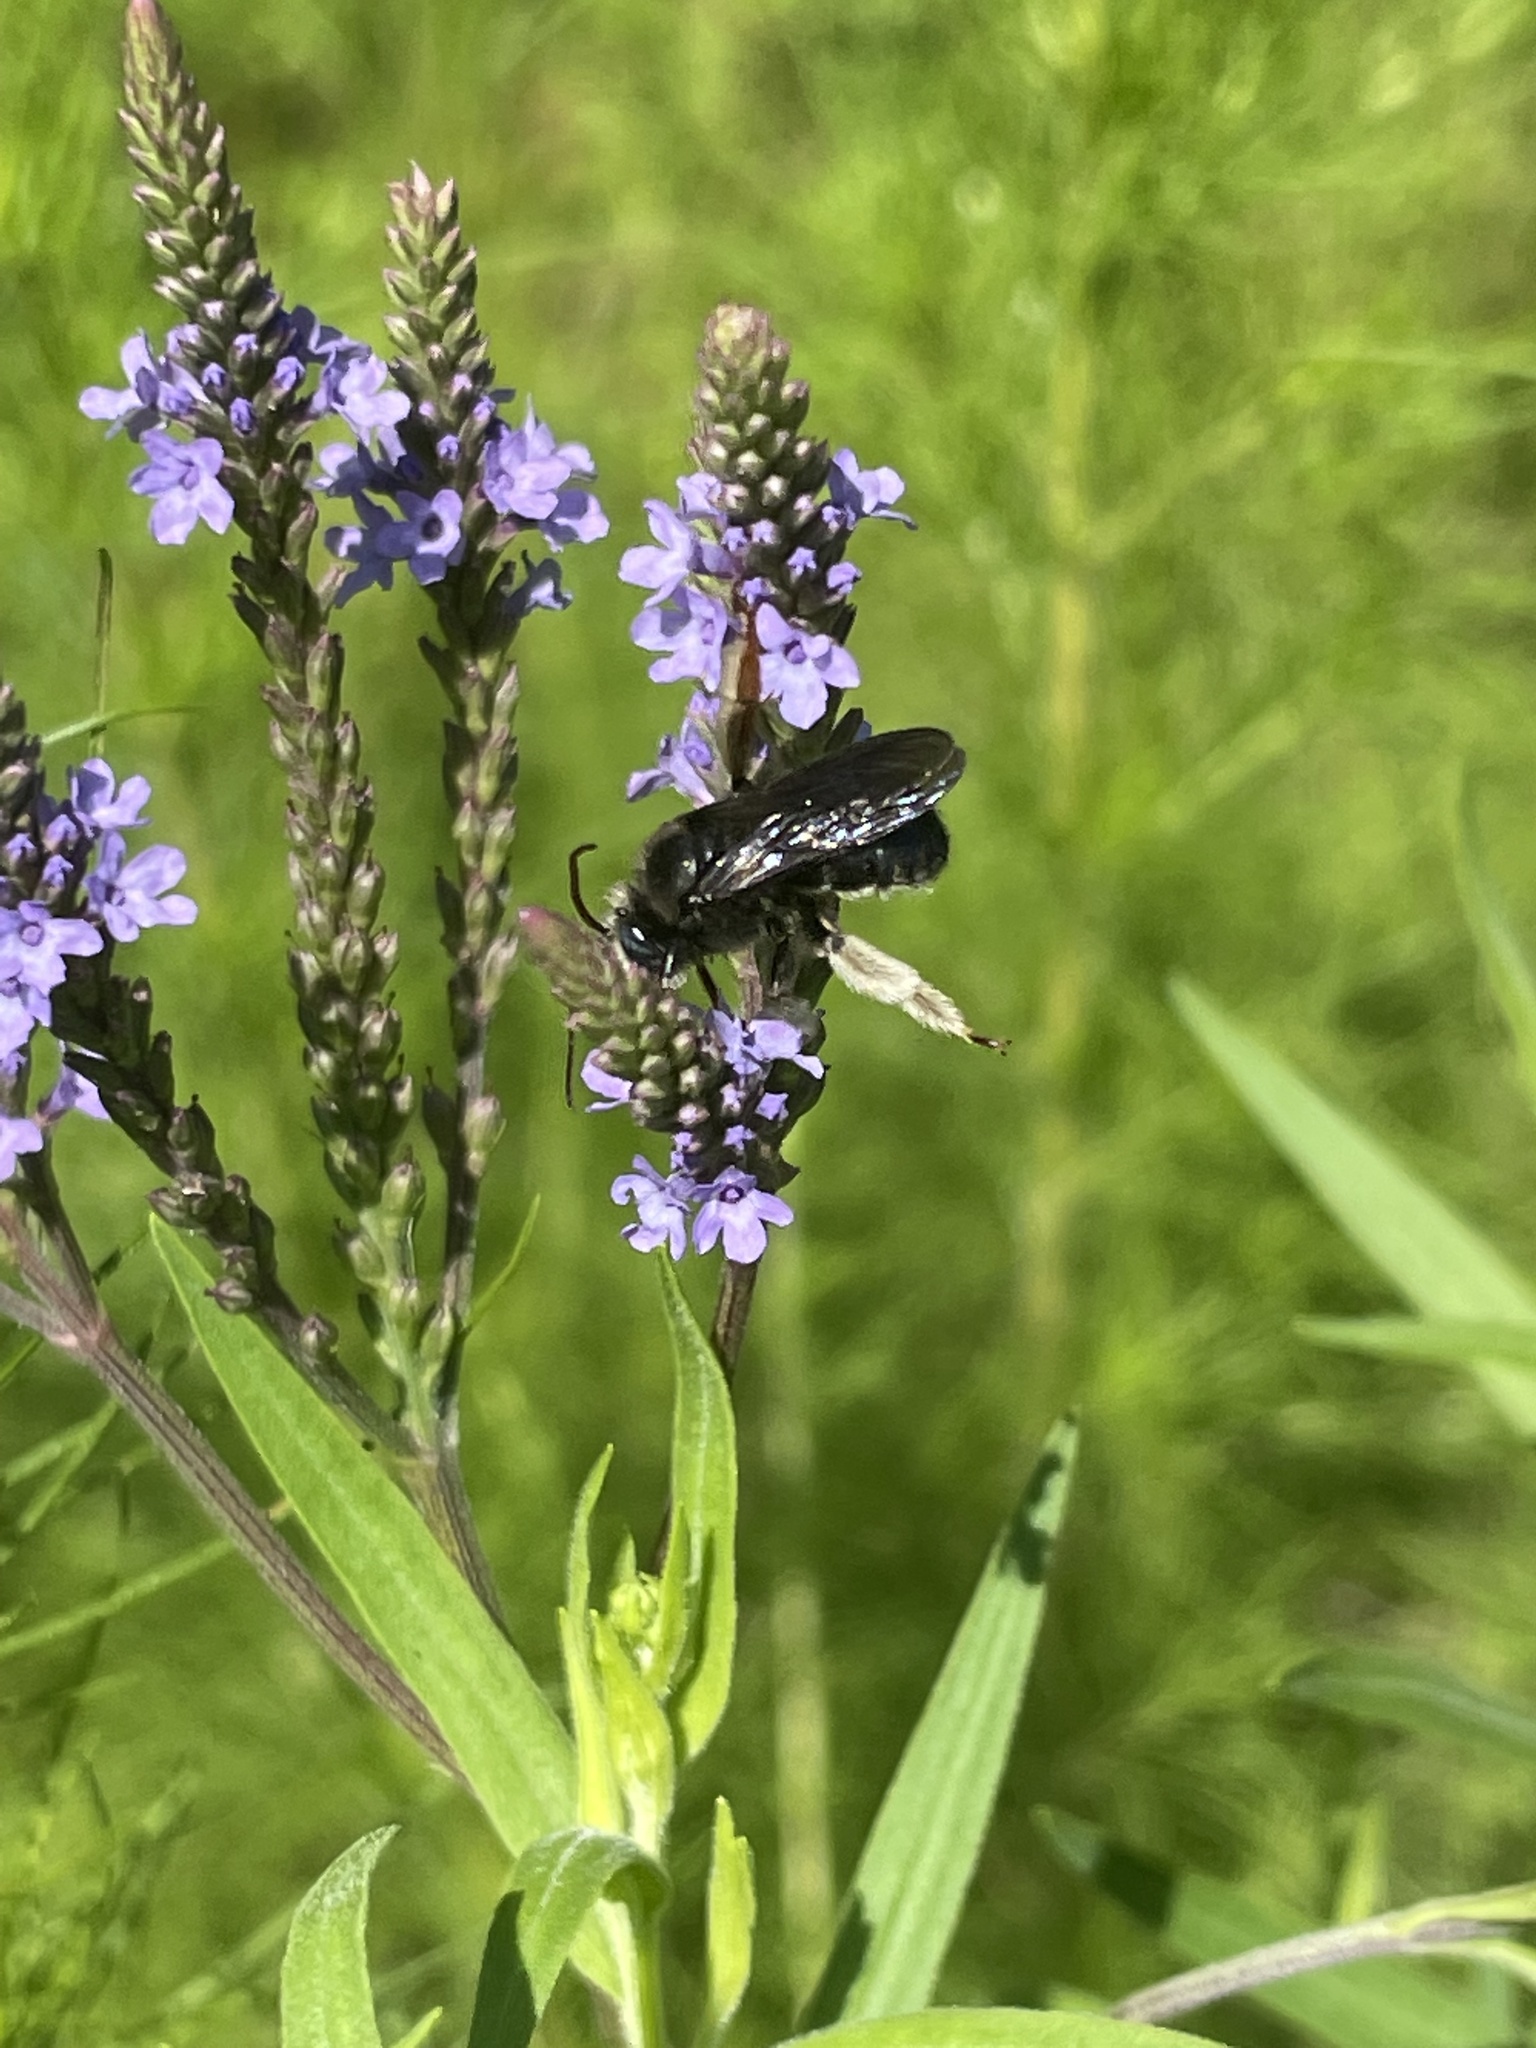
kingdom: Animalia
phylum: Arthropoda
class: Insecta
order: Hymenoptera
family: Apidae
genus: Melissodes
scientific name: Melissodes bimaculatus
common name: Two-spotted long-horned bee
